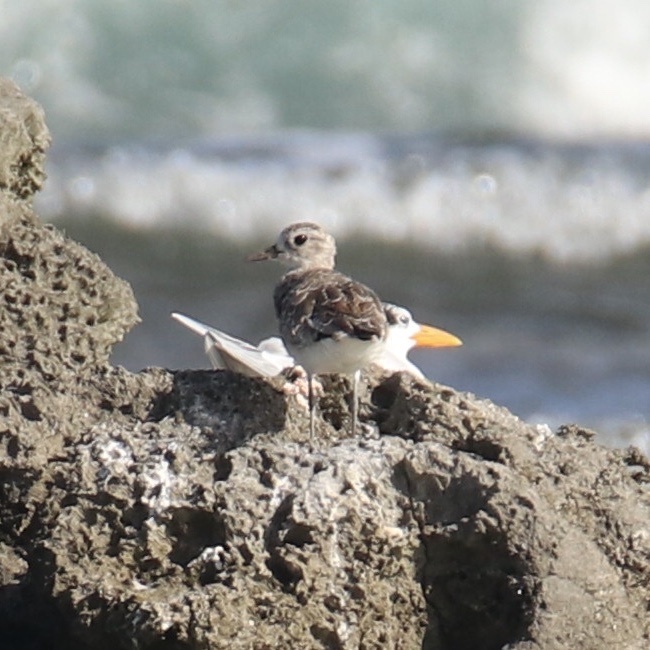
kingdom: Animalia
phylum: Chordata
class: Aves
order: Charadriiformes
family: Charadriidae
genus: Pluvialis
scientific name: Pluvialis squatarola
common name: Grey plover
